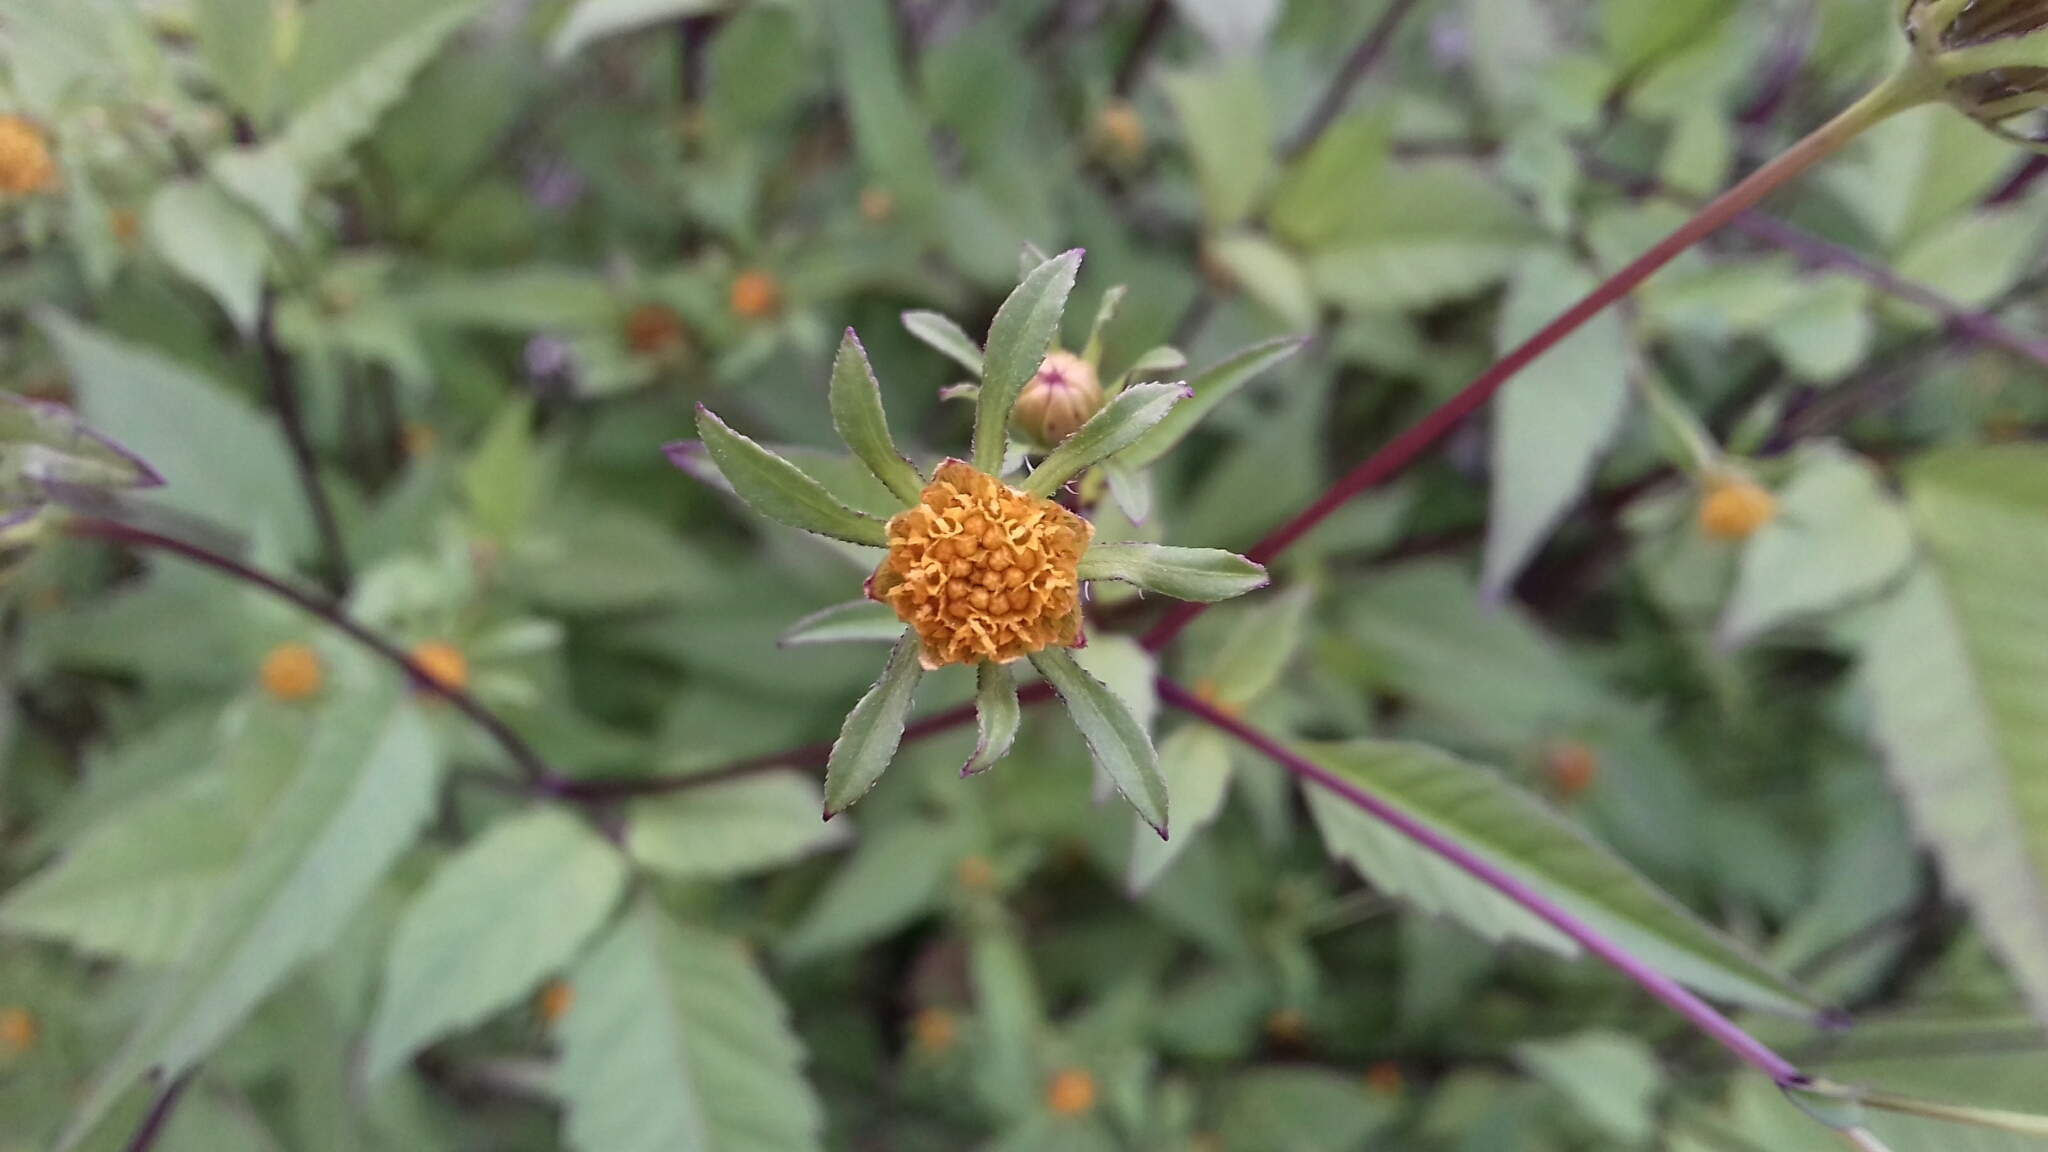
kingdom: Plantae
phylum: Tracheophyta
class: Magnoliopsida
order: Asterales
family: Asteraceae
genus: Bidens
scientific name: Bidens frondosa
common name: Beggarticks
